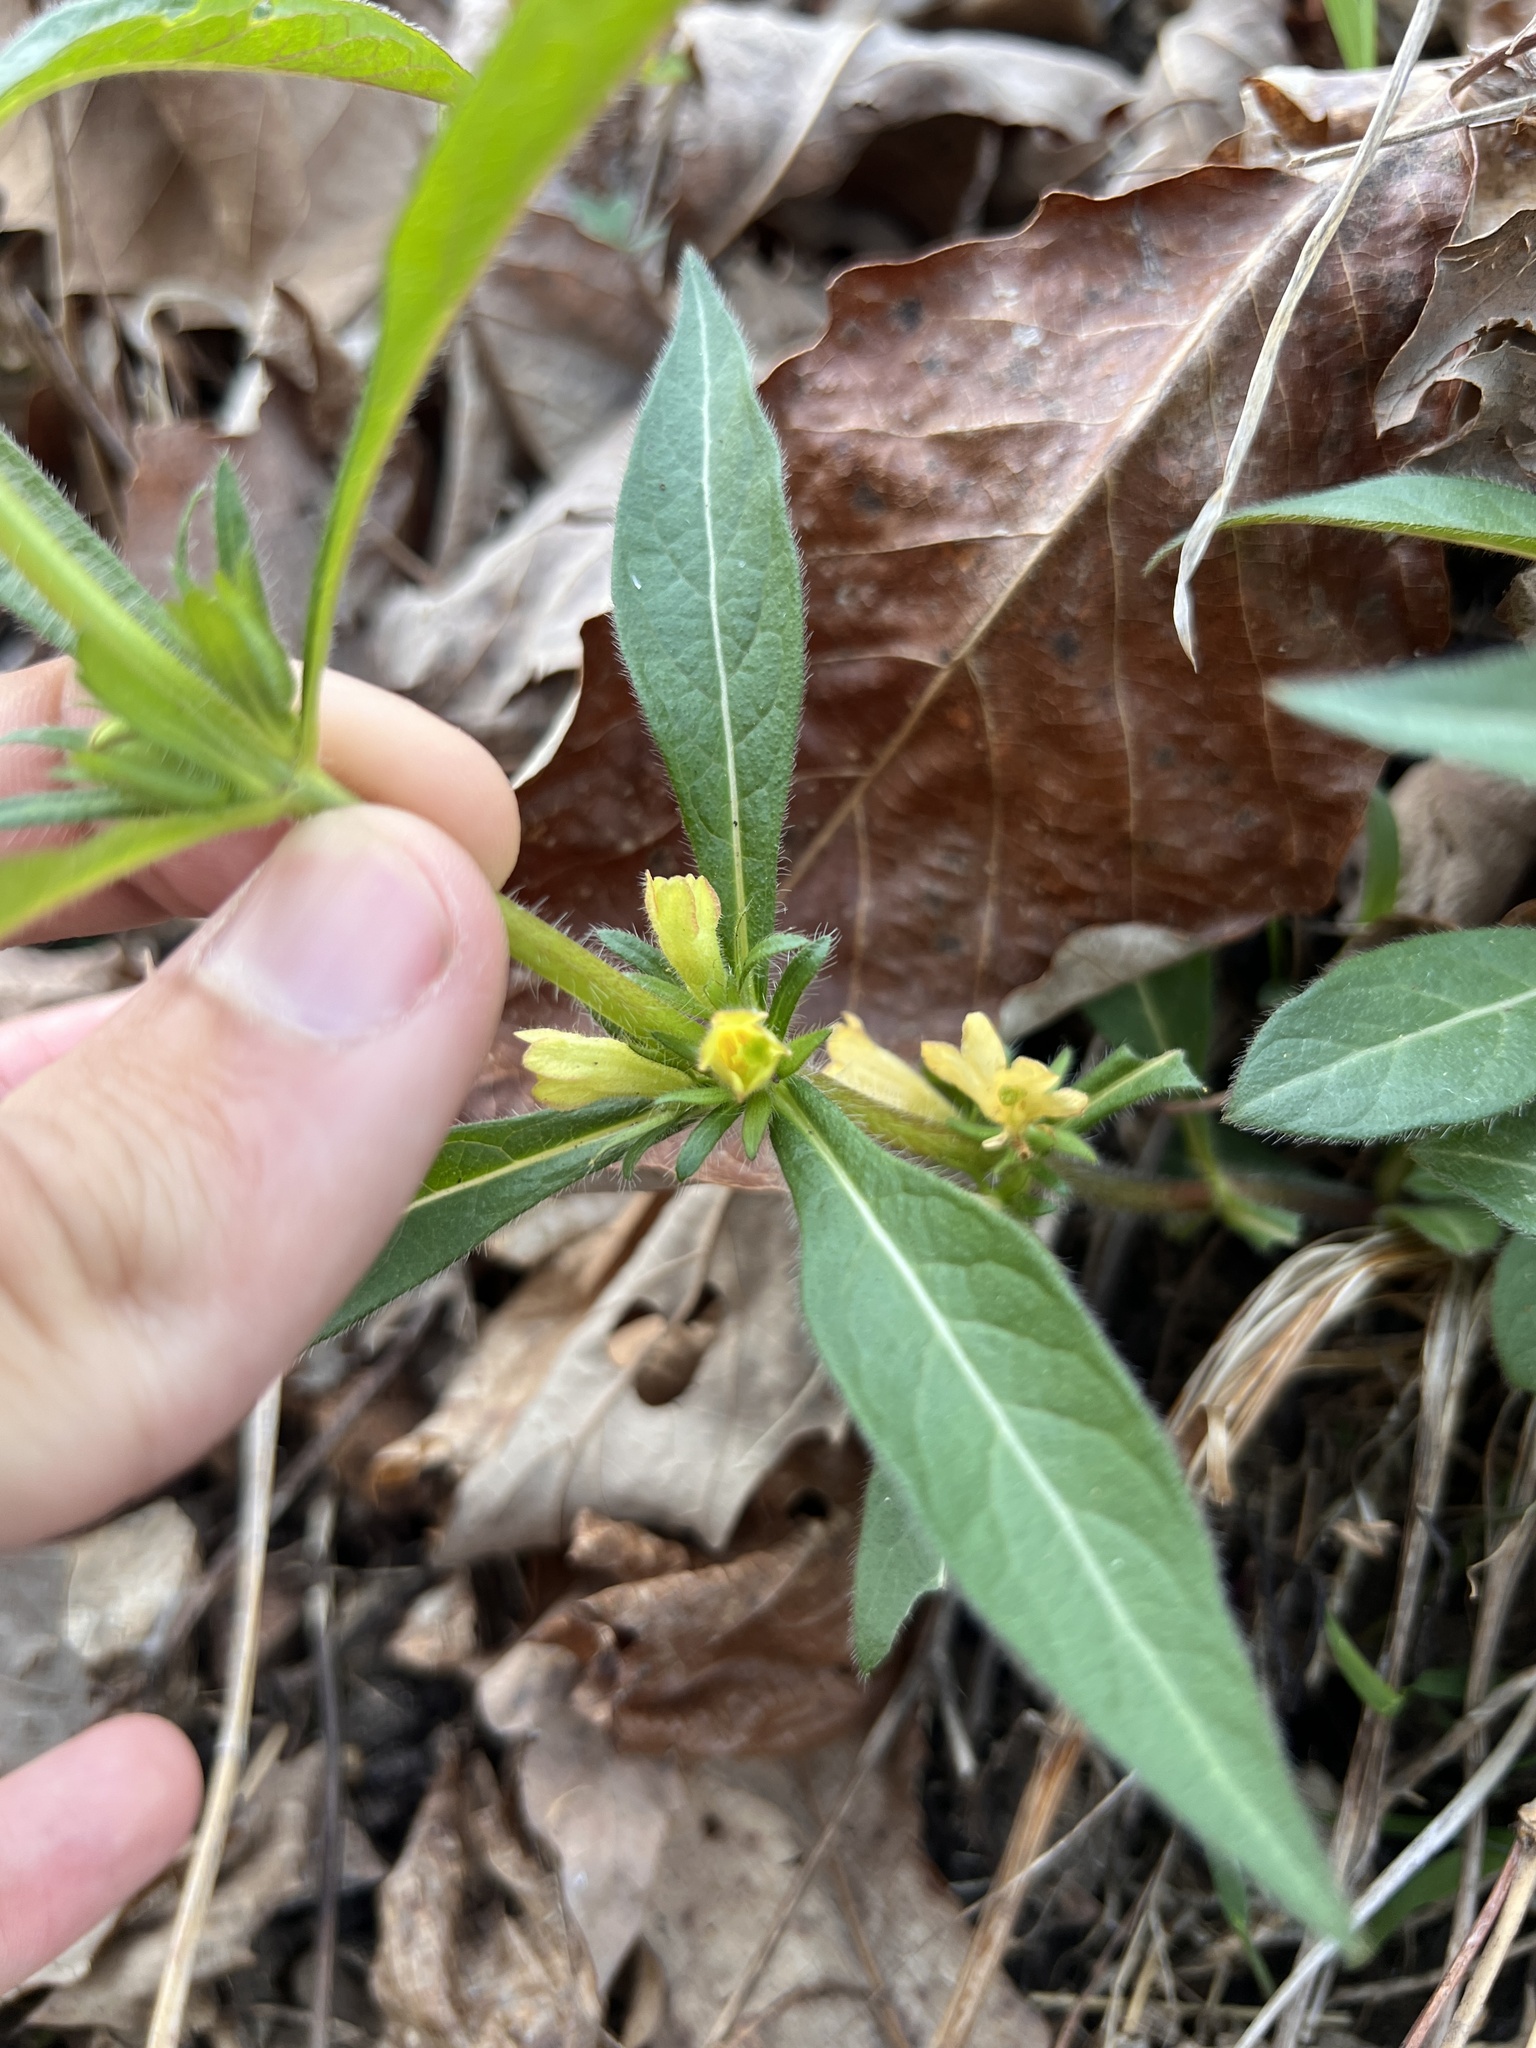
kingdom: Plantae
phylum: Tracheophyta
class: Magnoliopsida
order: Dipsacales
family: Caprifoliaceae
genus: Triosteum
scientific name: Triosteum angustifolium
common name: Narrow-leaved horse-gentian
